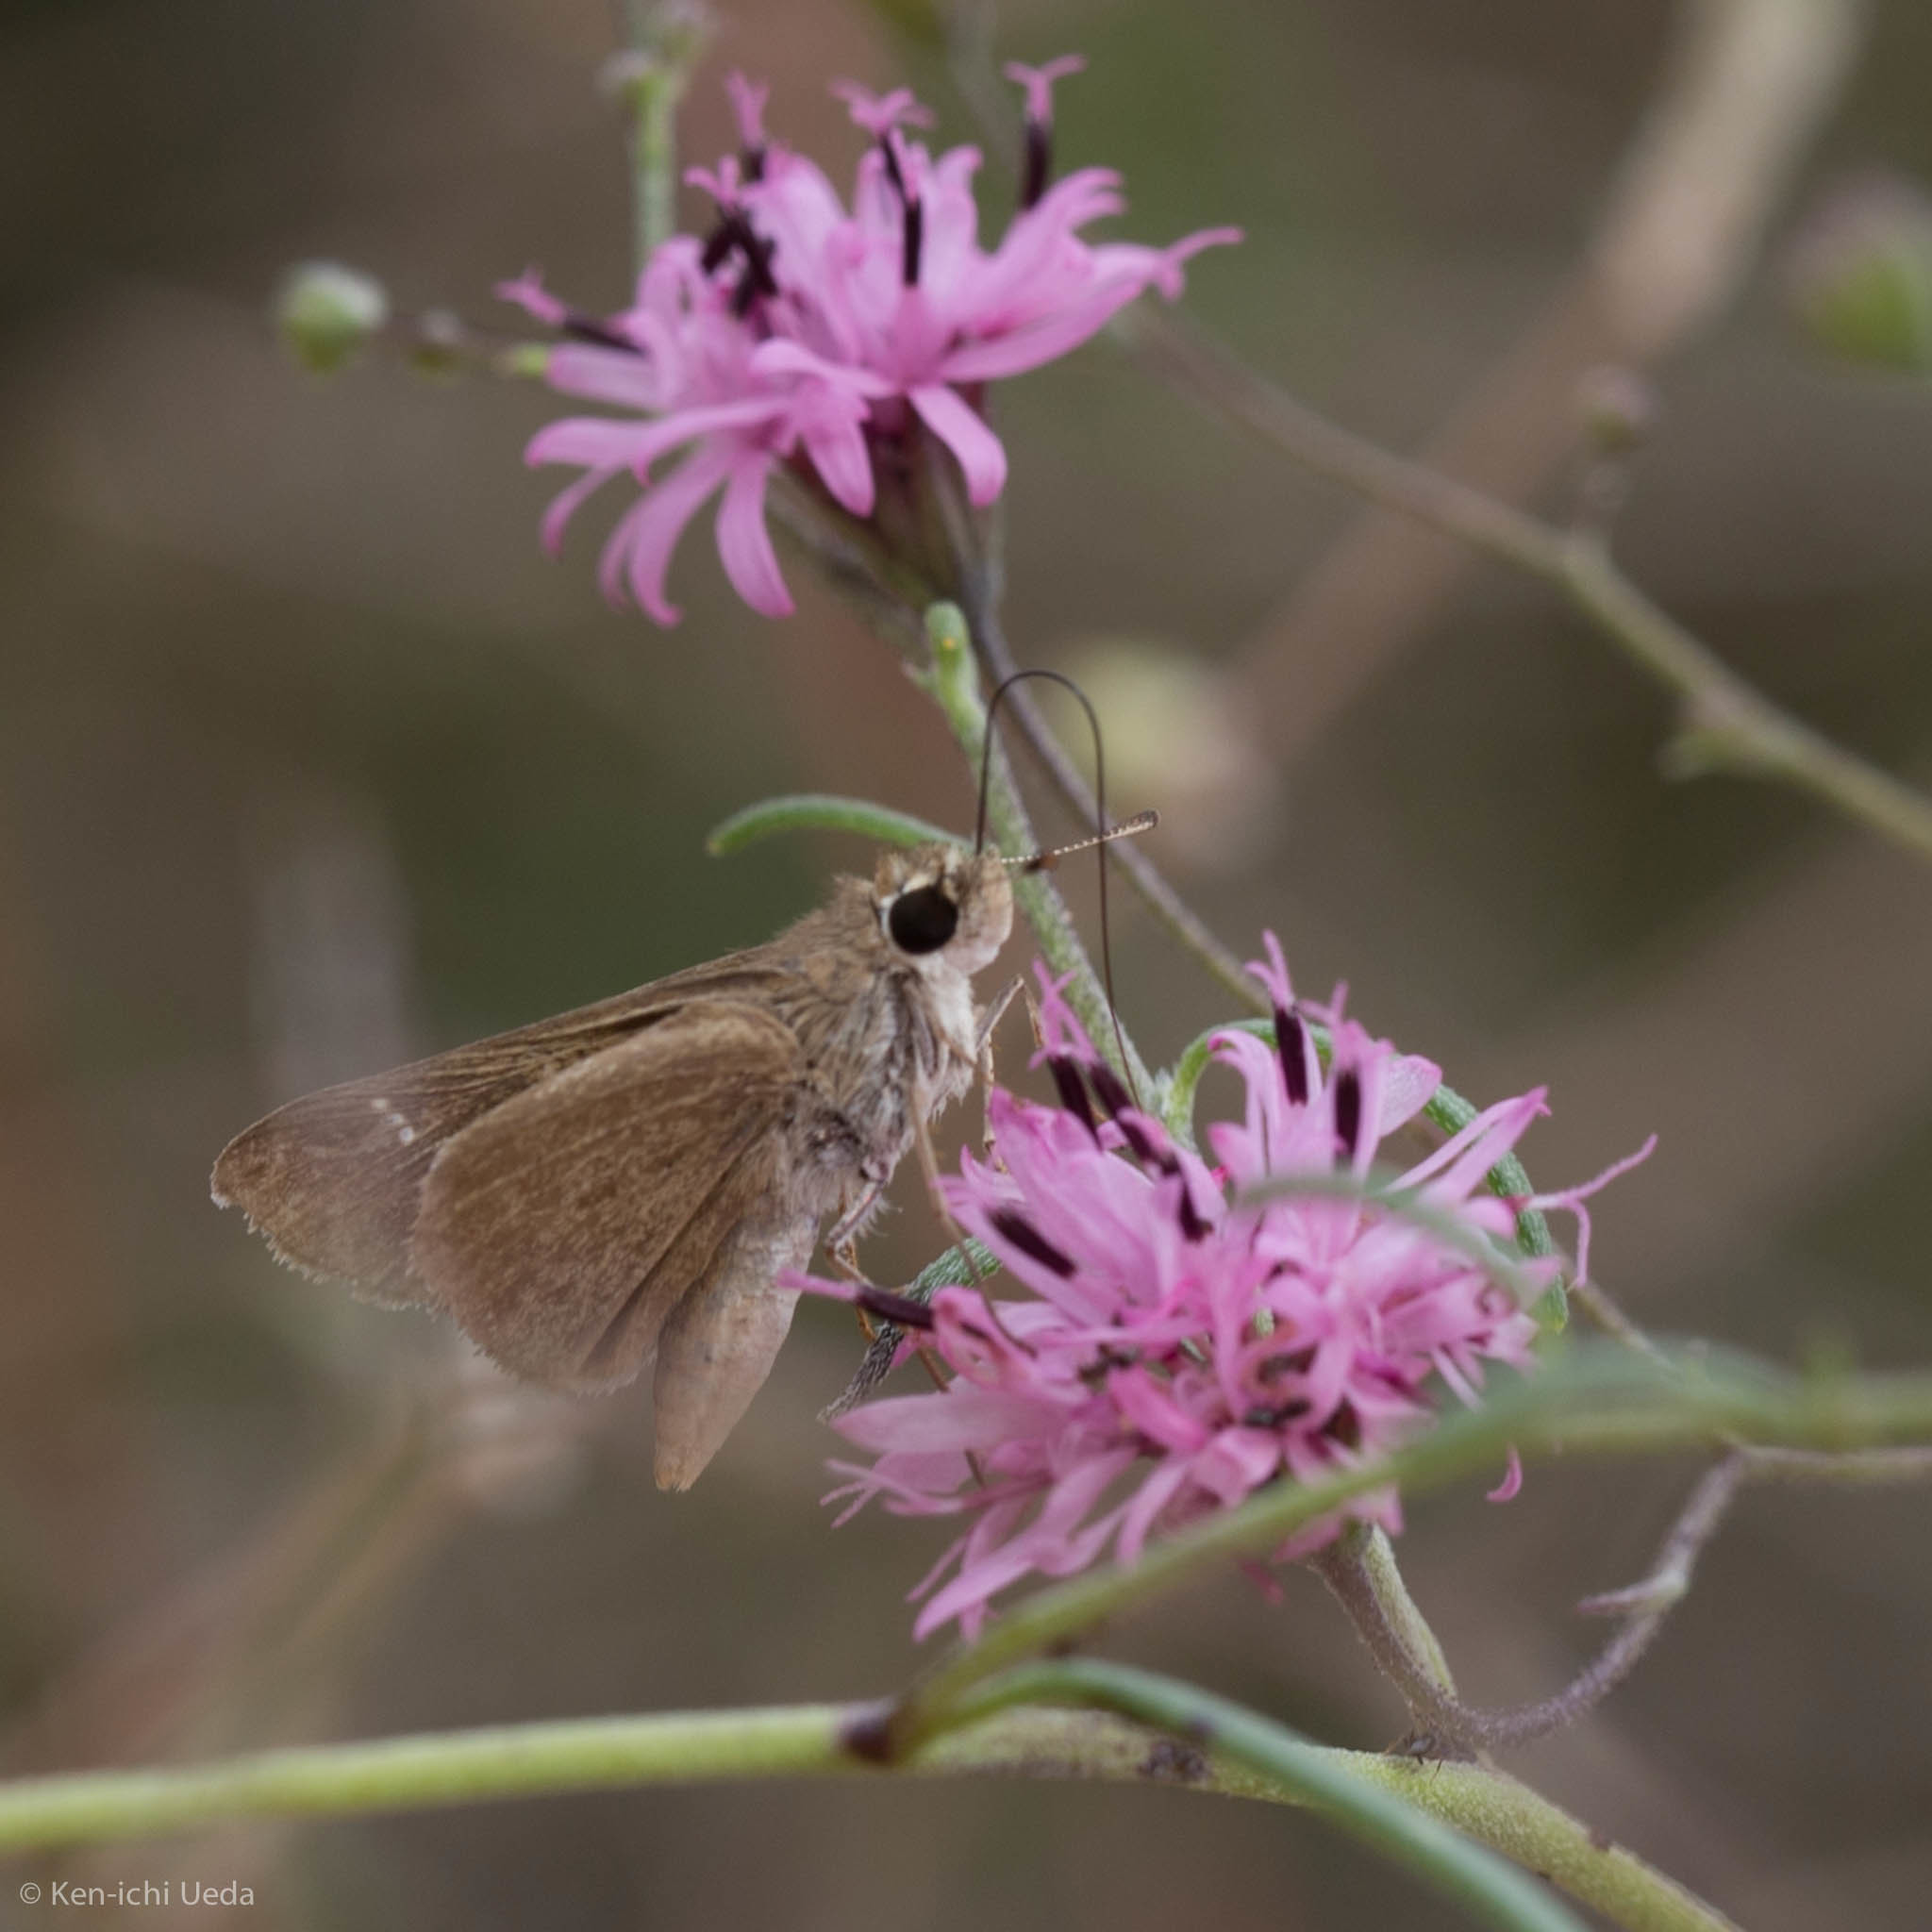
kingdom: Animalia
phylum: Arthropoda
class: Insecta
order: Lepidoptera
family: Hesperiidae
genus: Lerodea
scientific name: Lerodea eufala
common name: Eufala skipper
